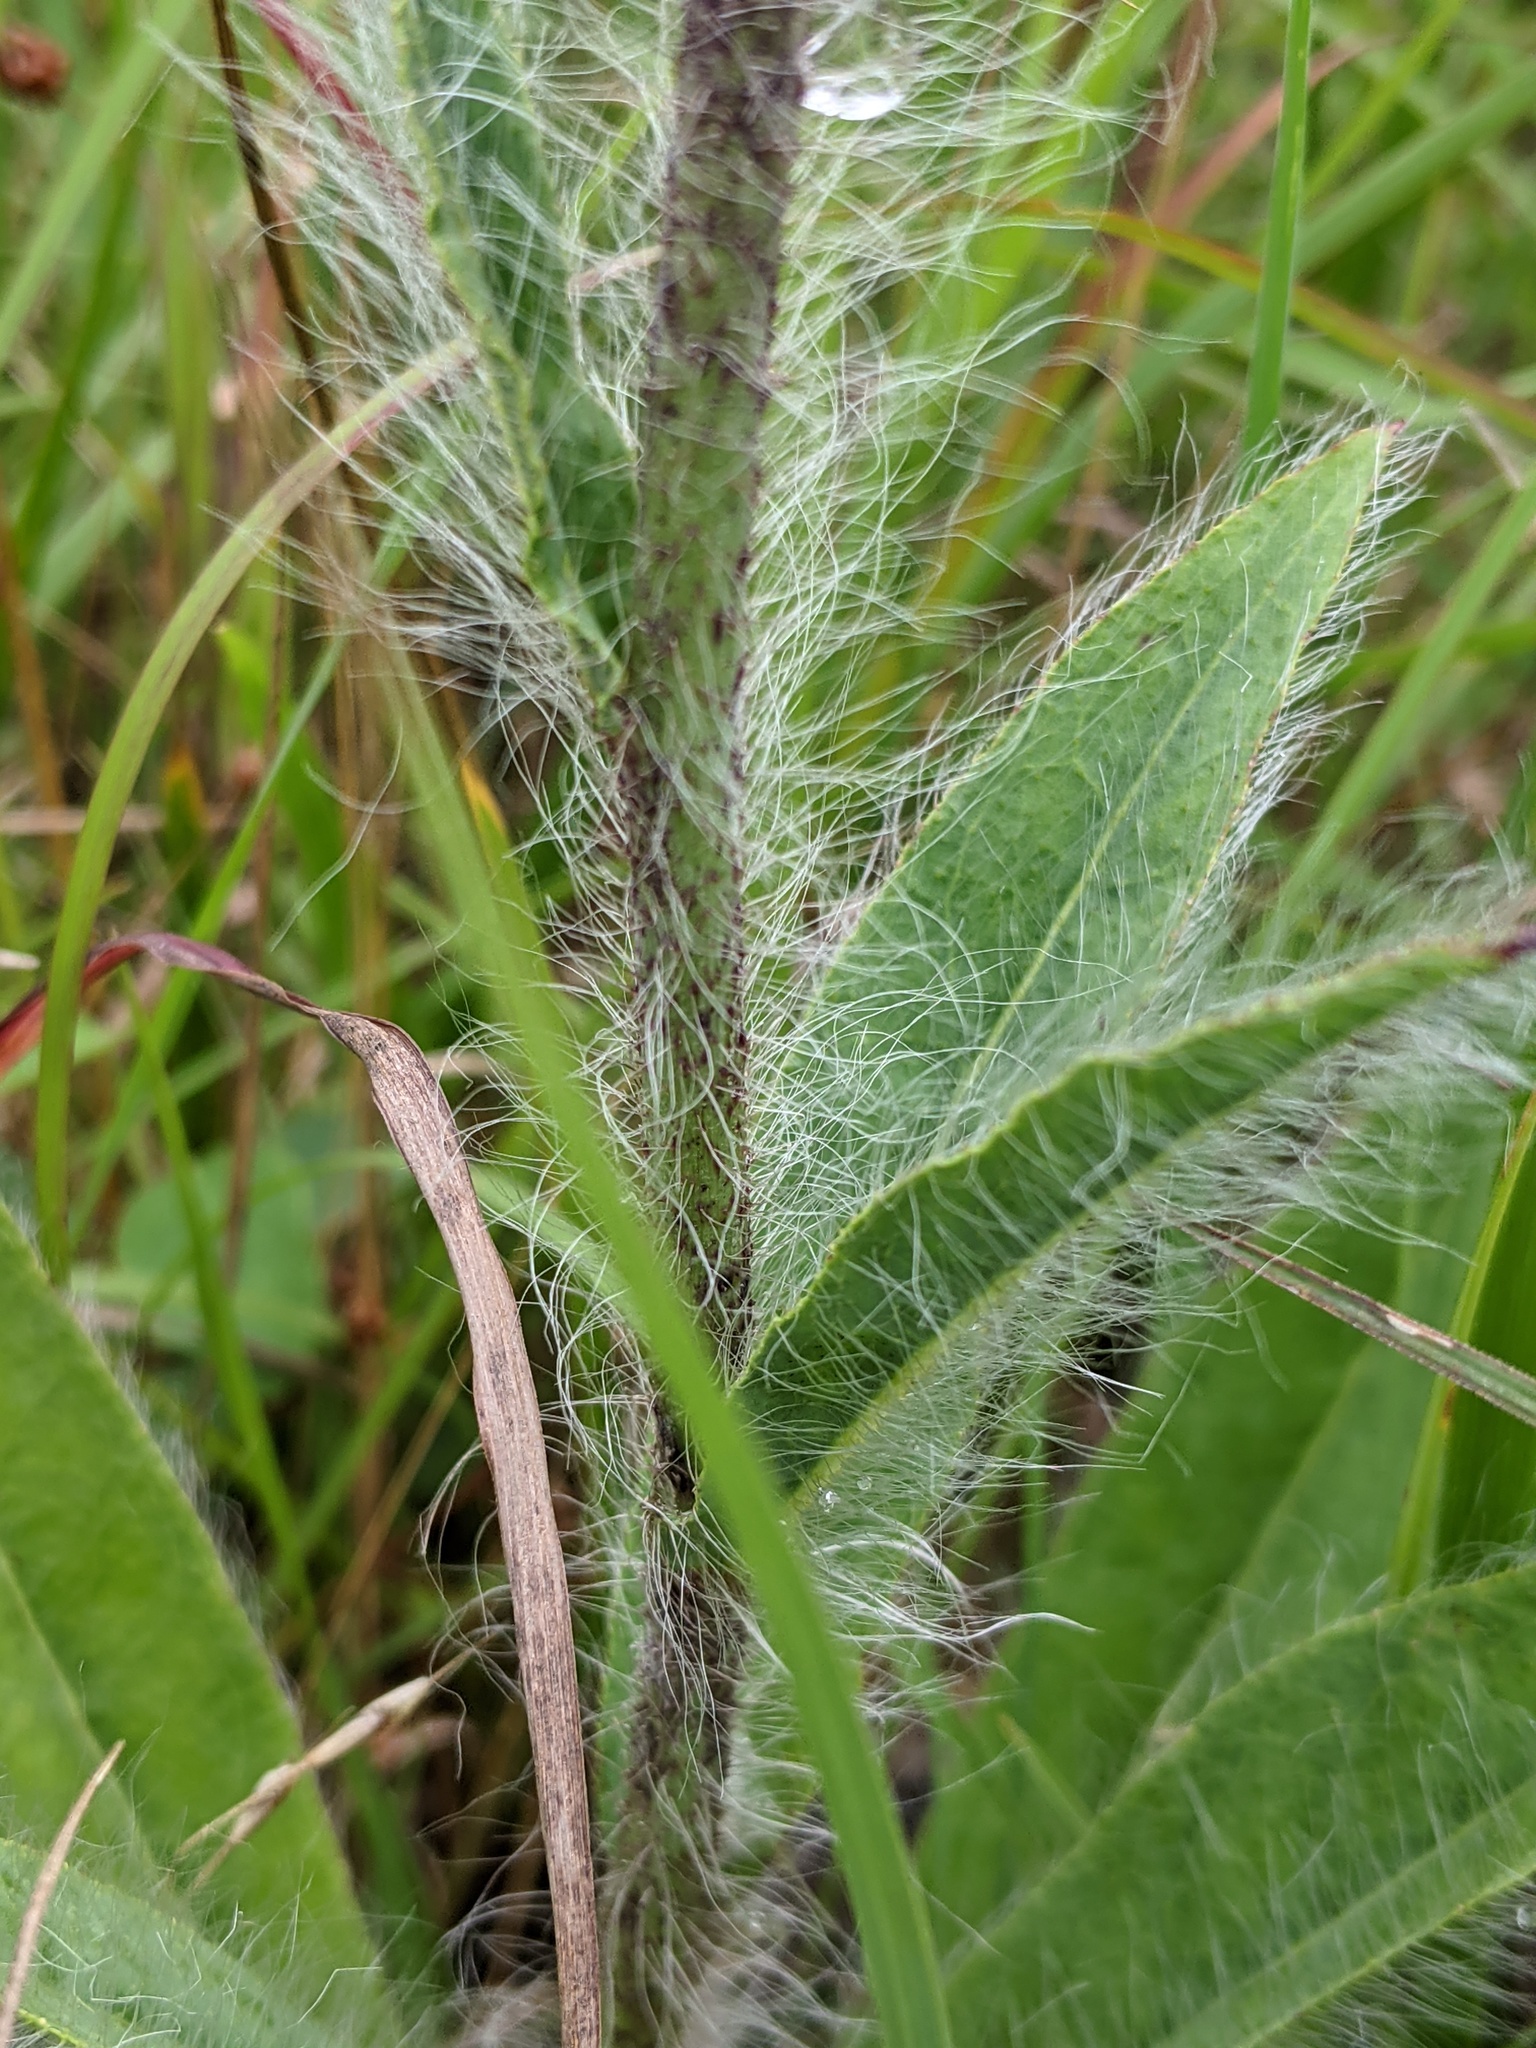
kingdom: Plantae
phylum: Tracheophyta
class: Magnoliopsida
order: Asterales
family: Asteraceae
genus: Hieracium
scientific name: Hieracium longipilum
